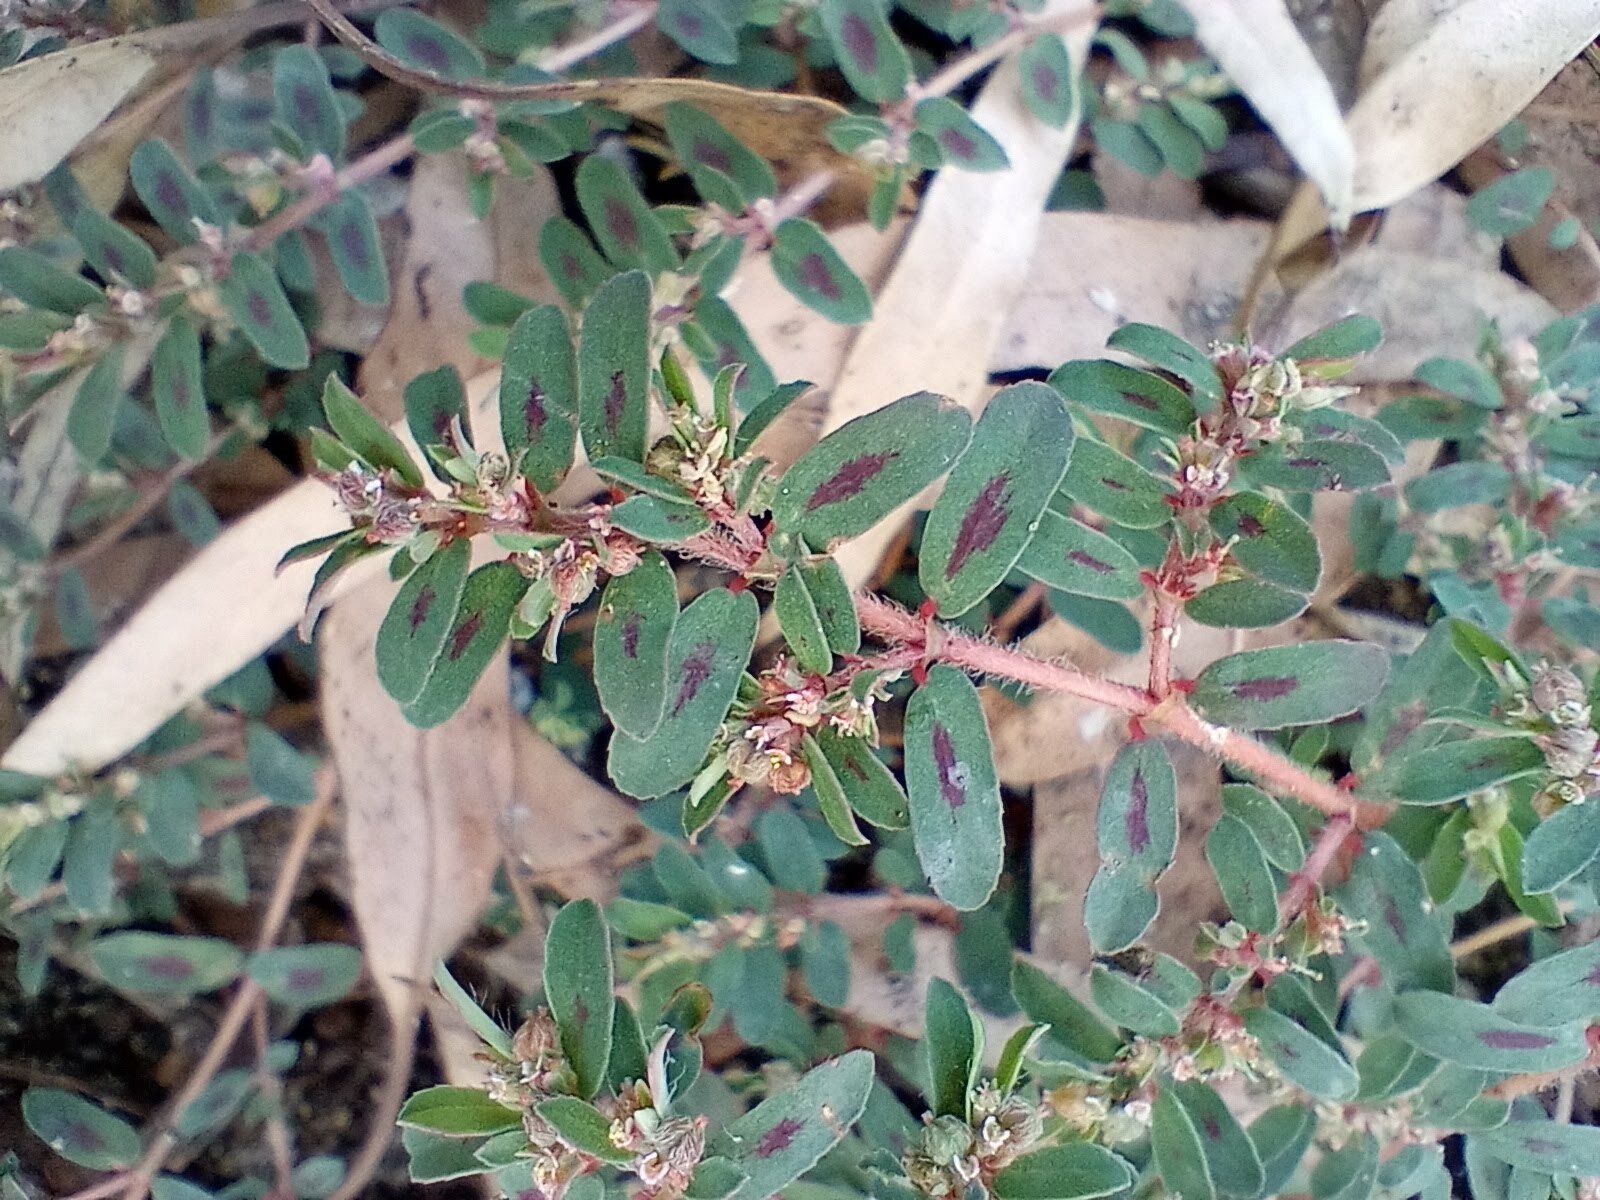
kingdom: Plantae
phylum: Tracheophyta
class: Magnoliopsida
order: Malpighiales
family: Euphorbiaceae
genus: Euphorbia
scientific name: Euphorbia maculata
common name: Spotted spurge
